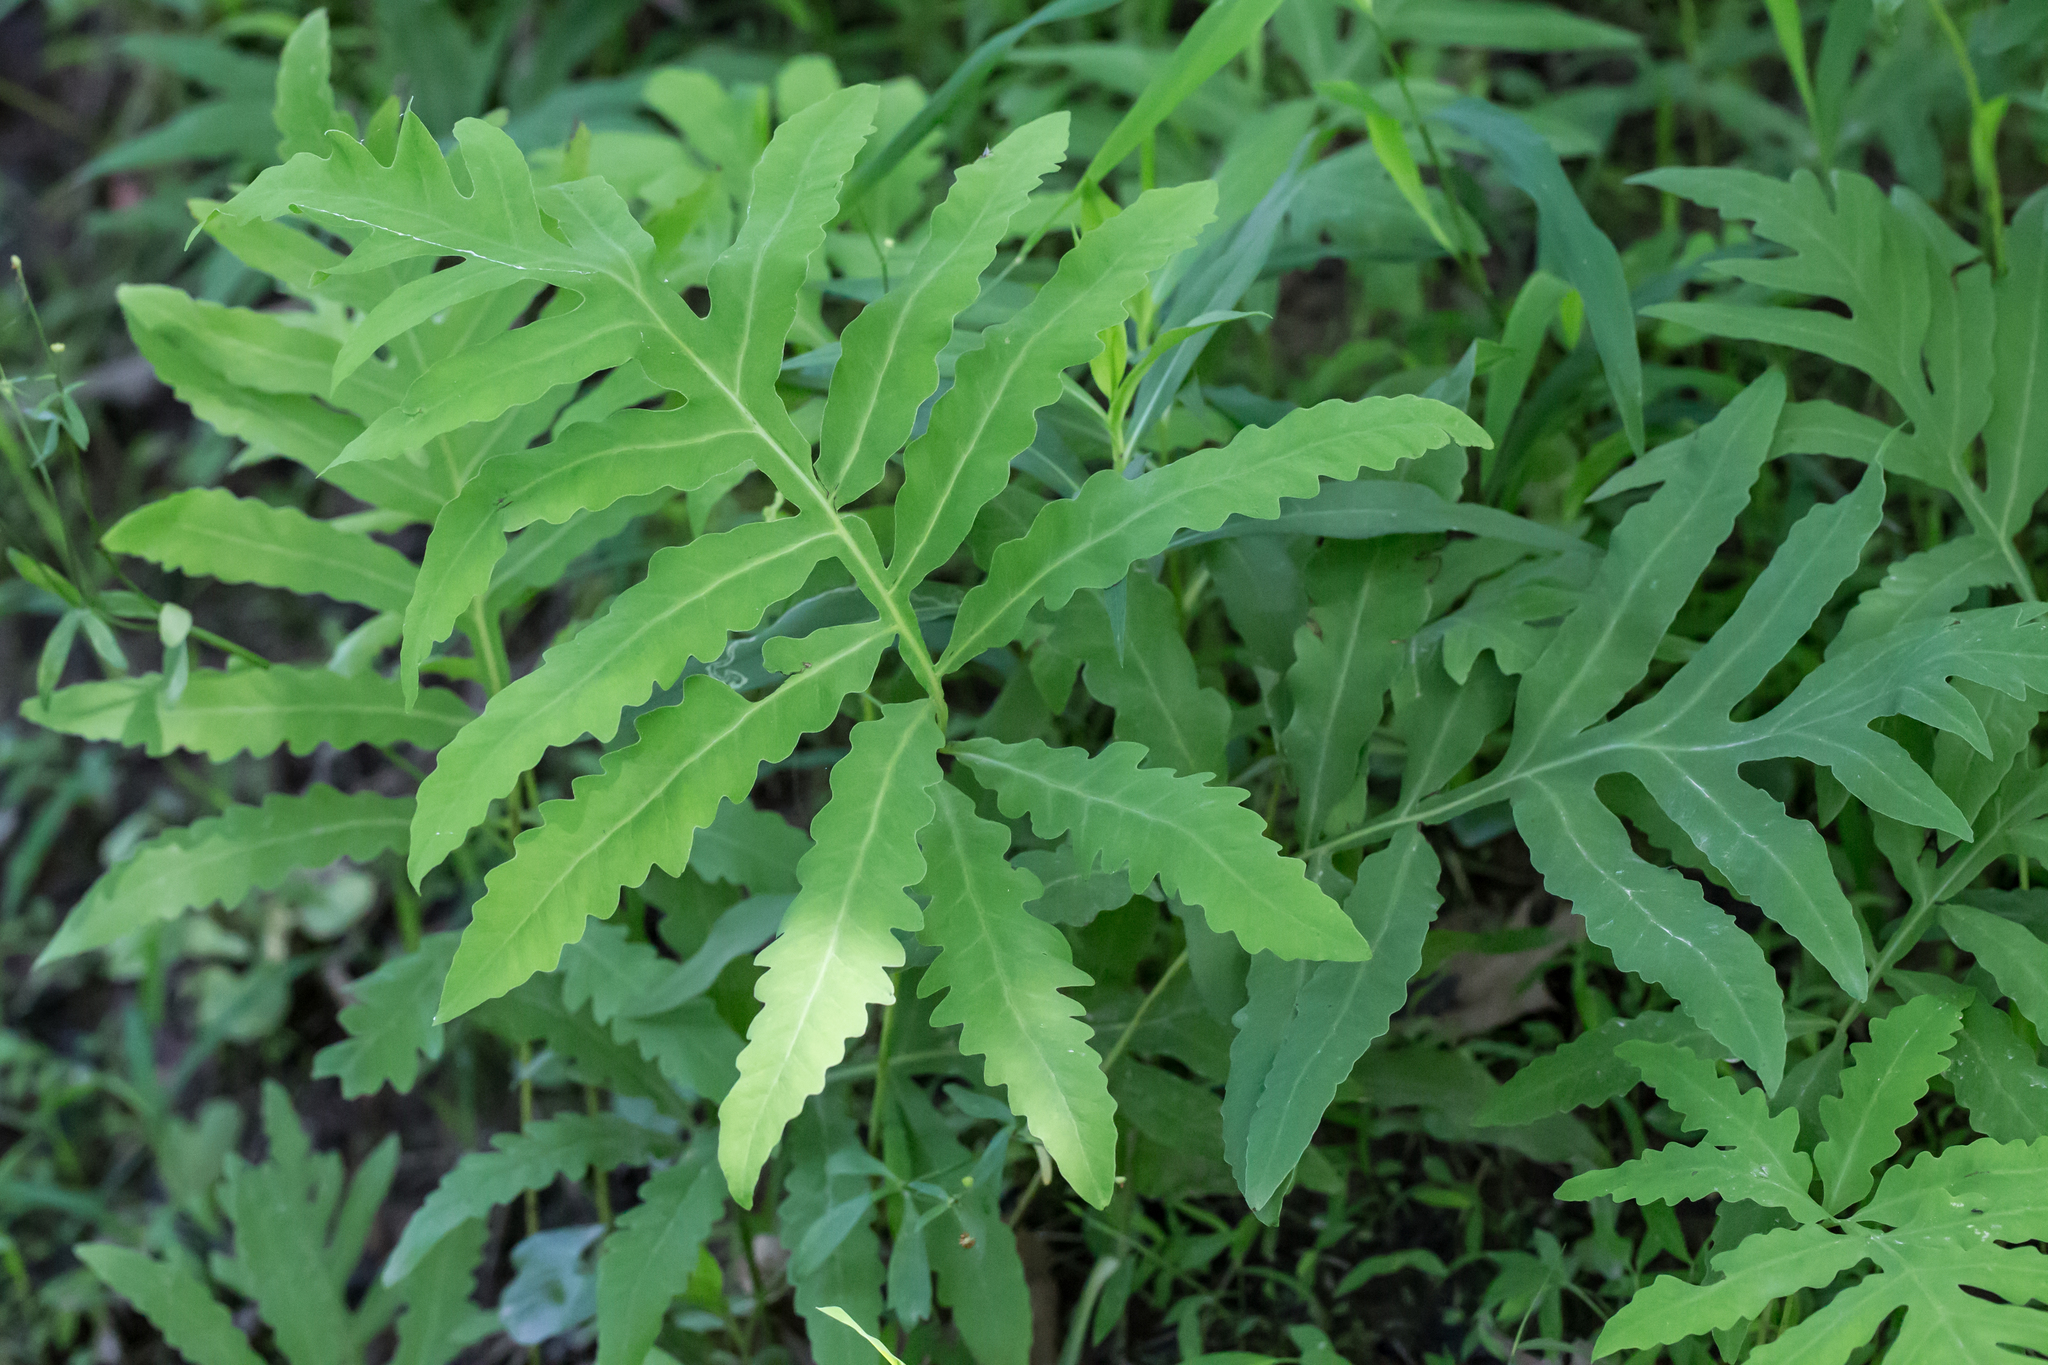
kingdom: Plantae
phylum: Tracheophyta
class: Polypodiopsida
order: Polypodiales
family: Onocleaceae
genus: Onoclea
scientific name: Onoclea sensibilis
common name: Sensitive fern
